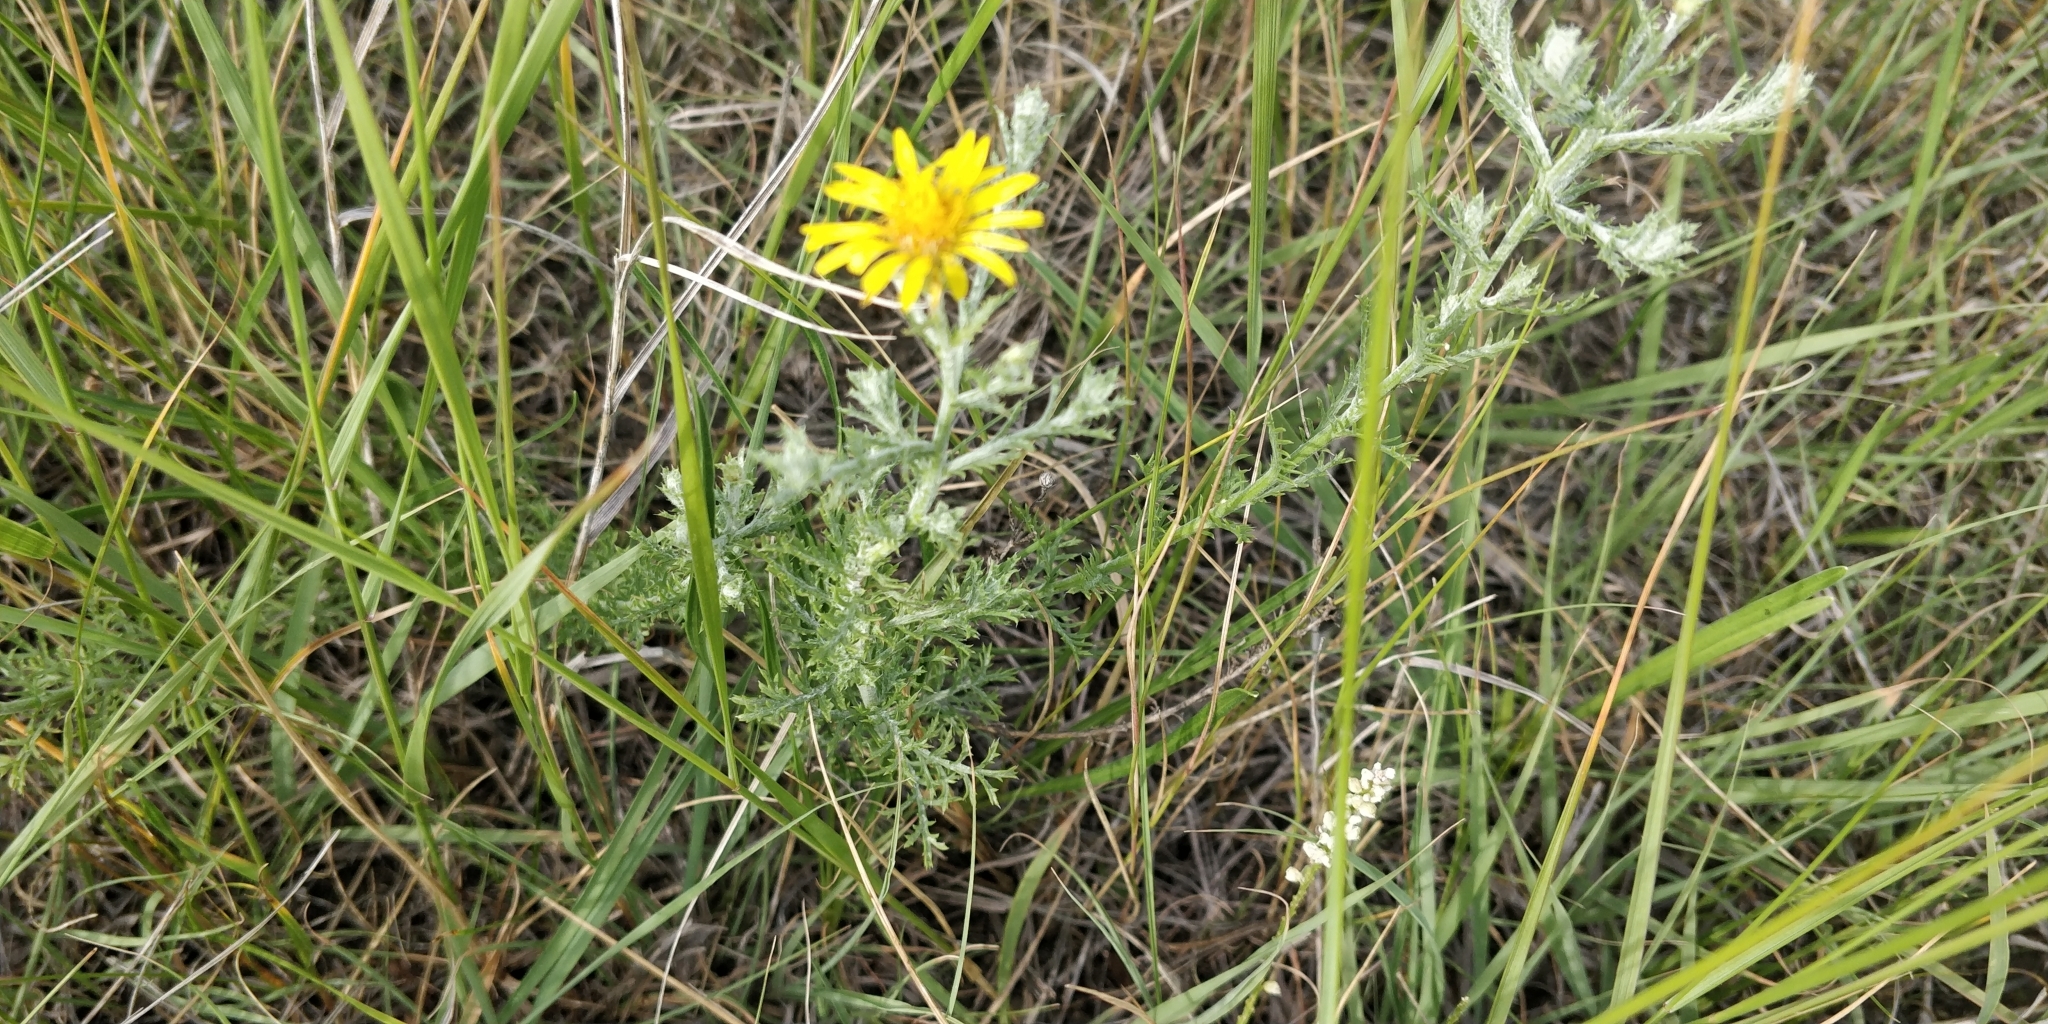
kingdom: Plantae
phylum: Tracheophyta
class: Magnoliopsida
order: Asterales
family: Asteraceae
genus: Xanthisma
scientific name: Xanthisma spinulosum
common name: Spiny goldenweed
